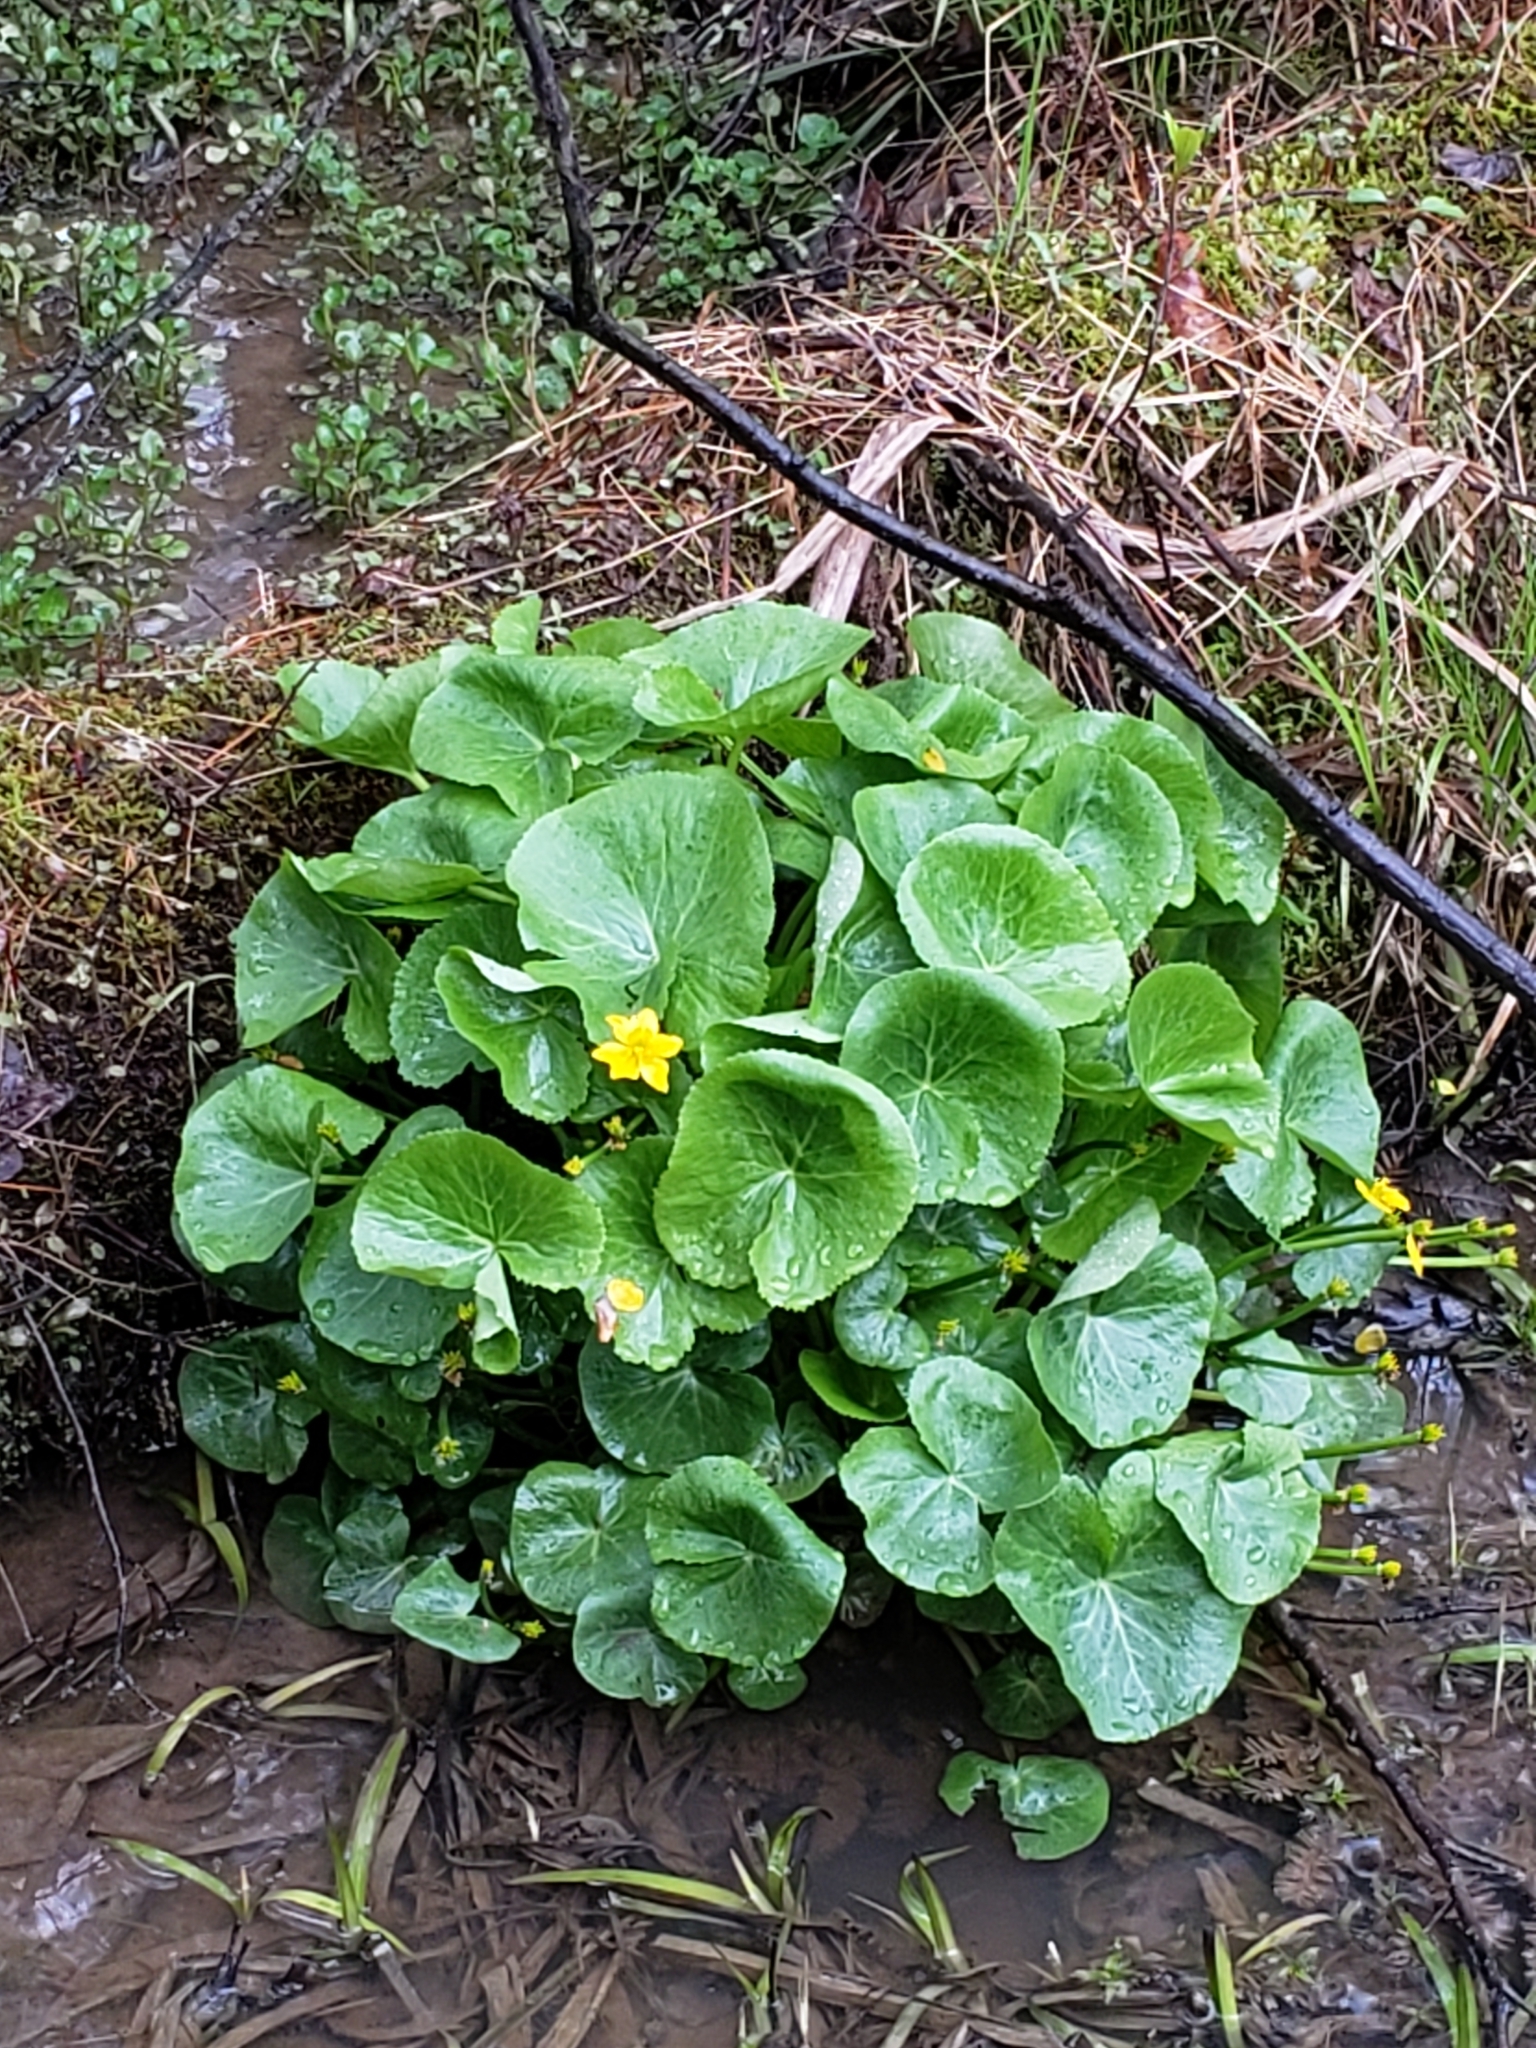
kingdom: Plantae
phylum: Tracheophyta
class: Magnoliopsida
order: Ranunculales
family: Ranunculaceae
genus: Caltha
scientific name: Caltha palustris
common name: Marsh marigold
